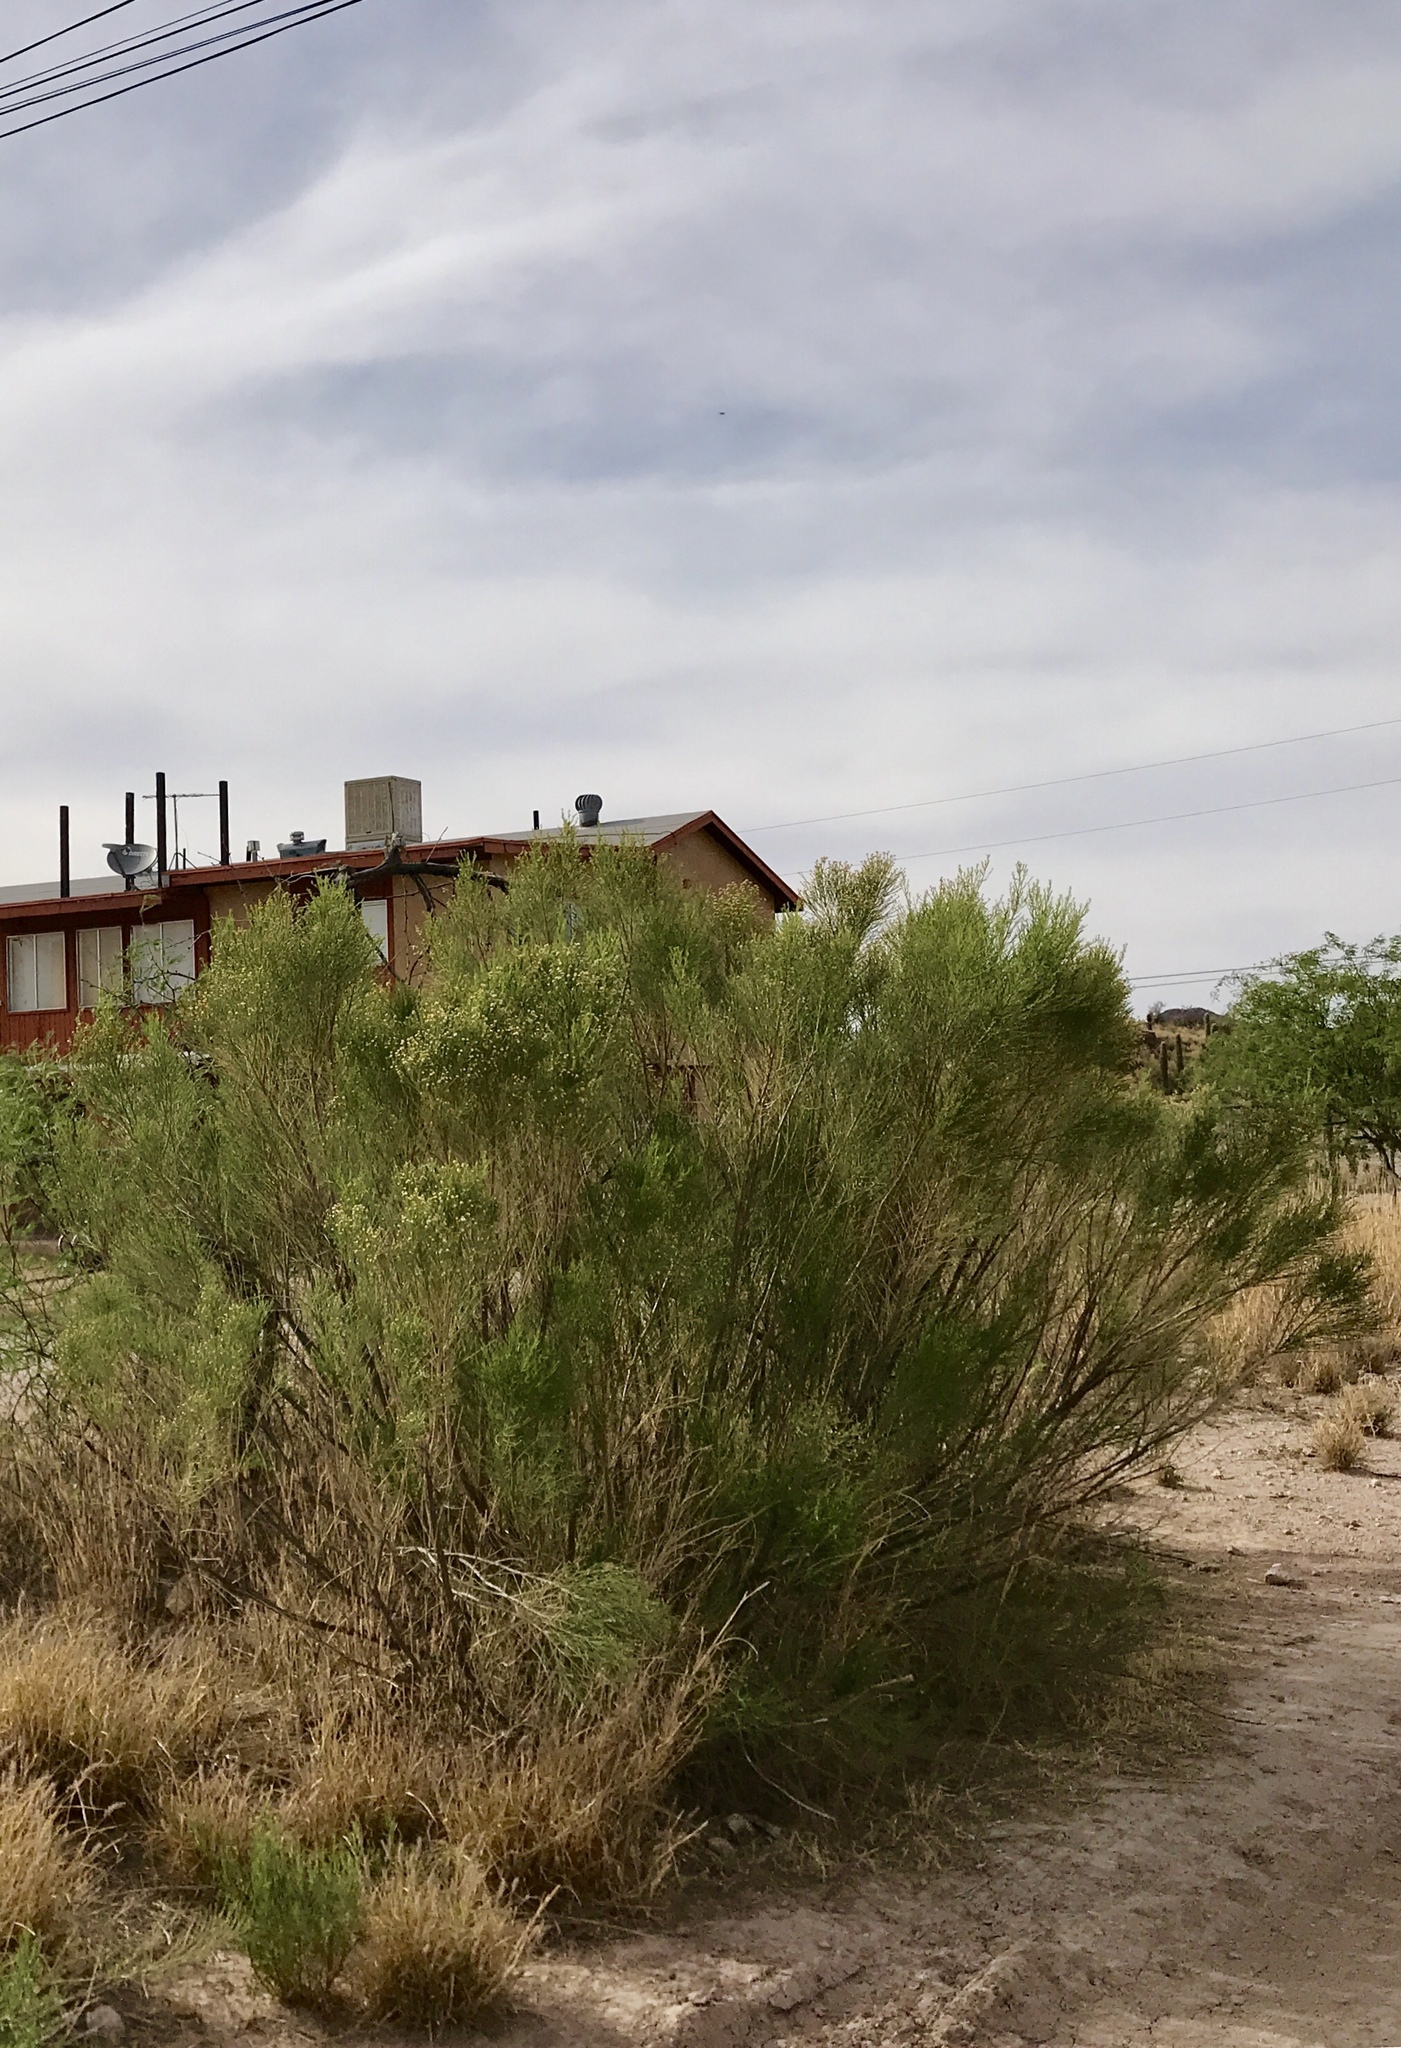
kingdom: Plantae
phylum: Tracheophyta
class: Magnoliopsida
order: Asterales
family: Asteraceae
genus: Baccharis
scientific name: Baccharis sarothroides
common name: Desert-broom
